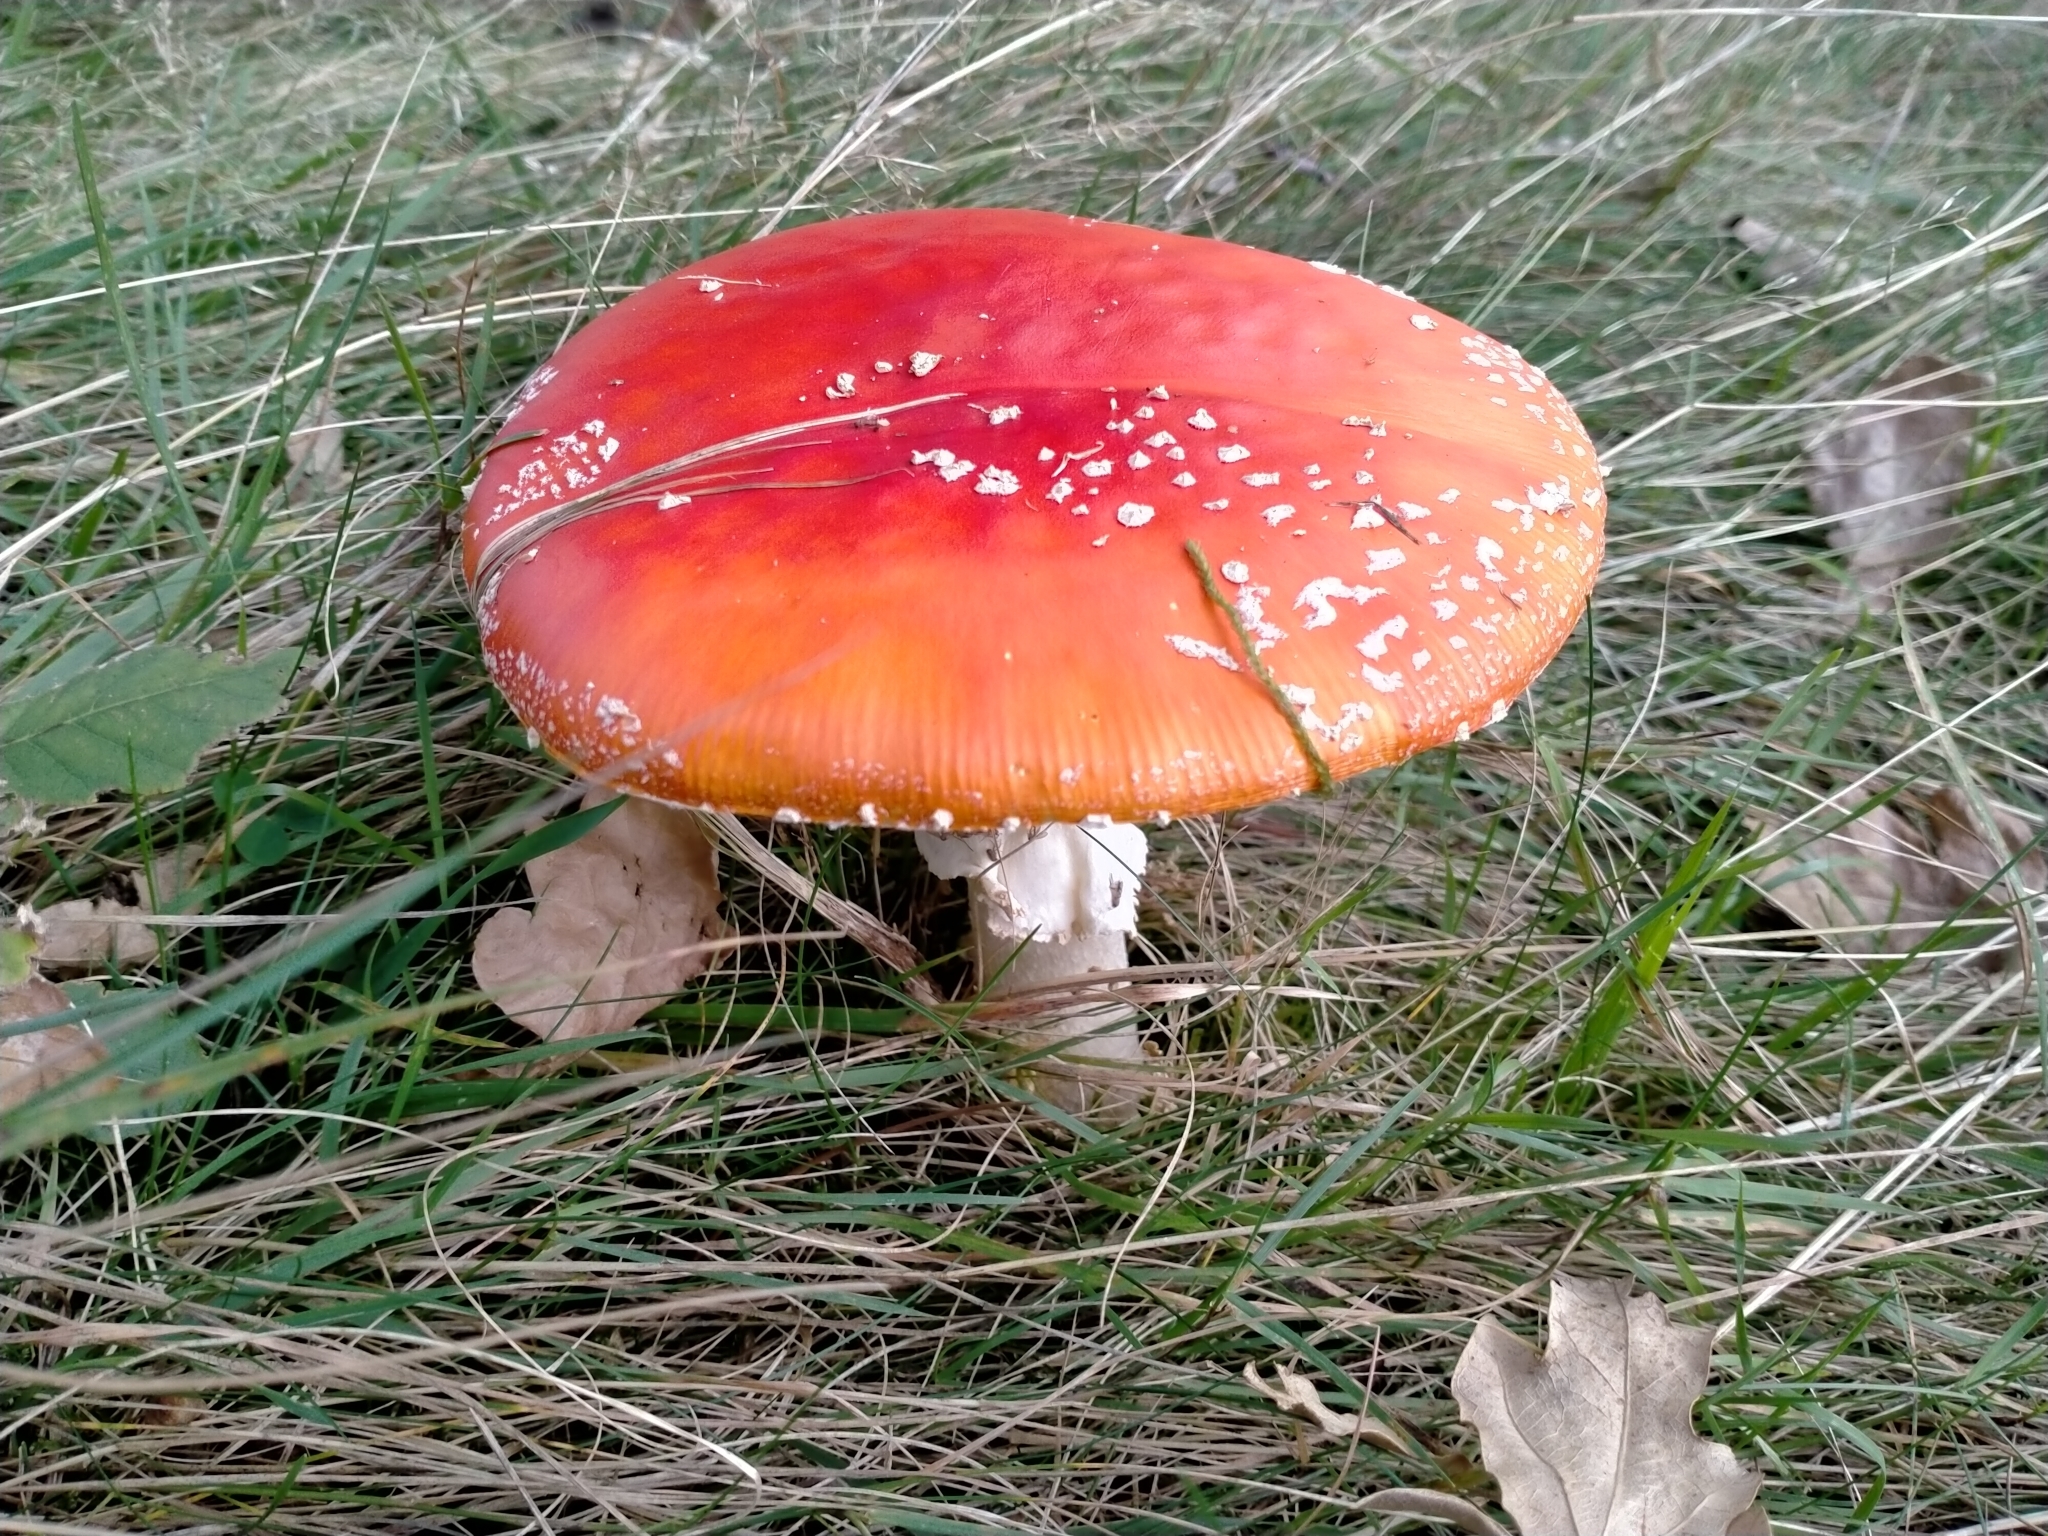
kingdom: Fungi
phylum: Basidiomycota
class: Agaricomycetes
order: Agaricales
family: Amanitaceae
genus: Amanita
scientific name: Amanita muscaria
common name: Fly agaric
